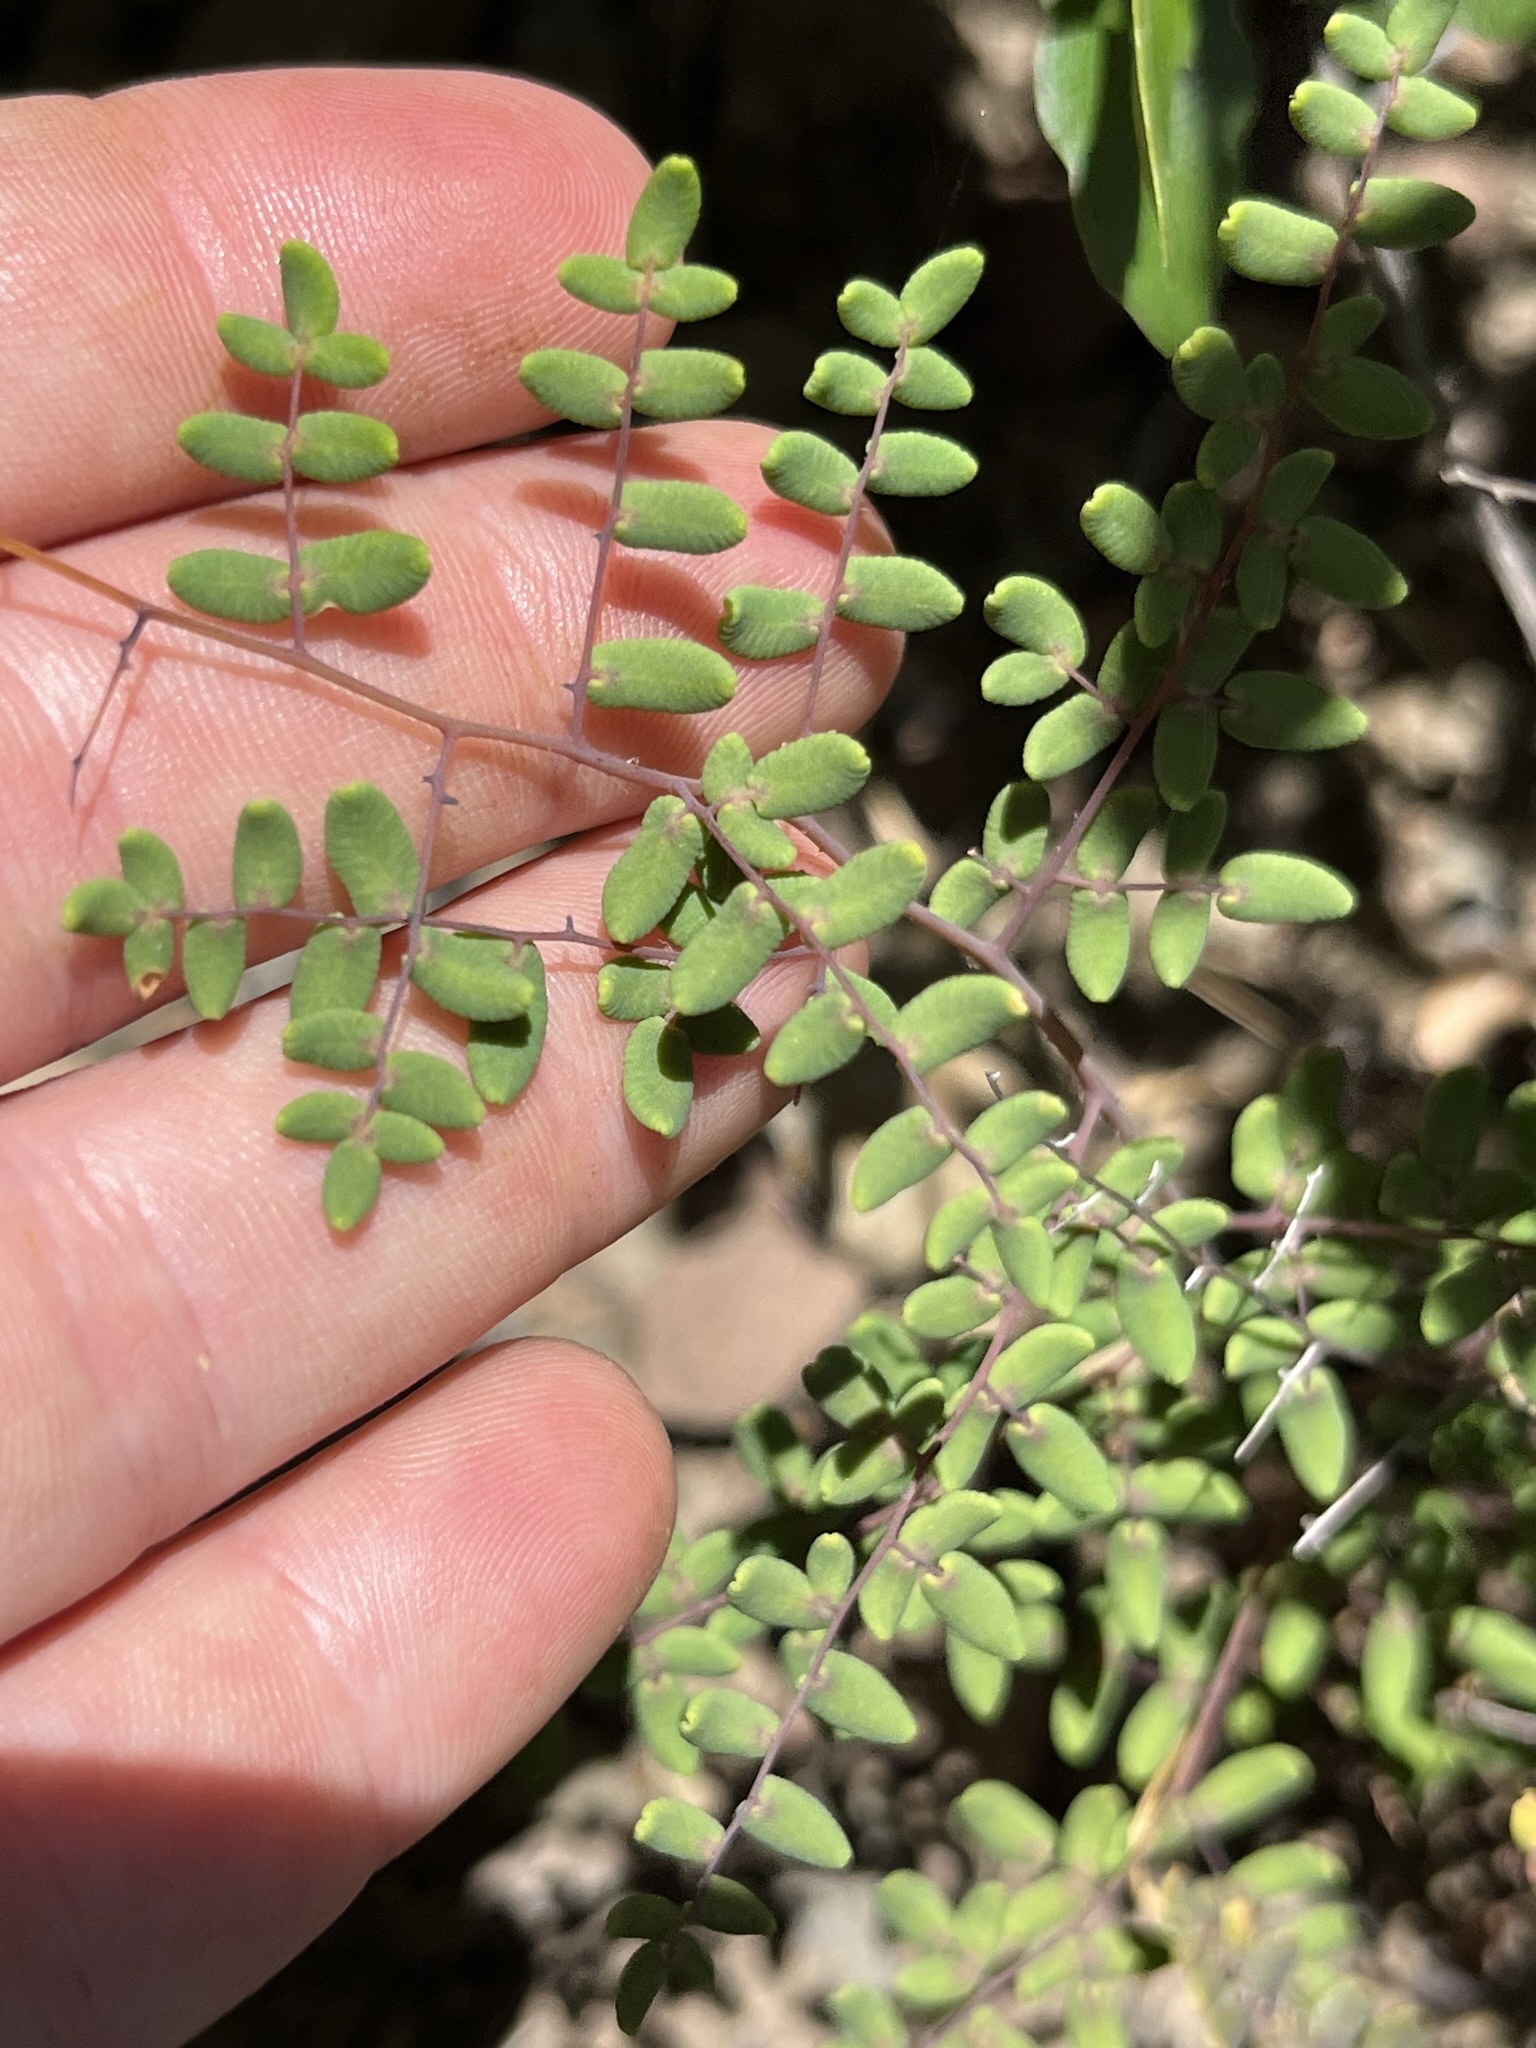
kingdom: Plantae
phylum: Tracheophyta
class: Polypodiopsida
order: Polypodiales
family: Pteridaceae
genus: Pellaea
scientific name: Pellaea andromedifolia
